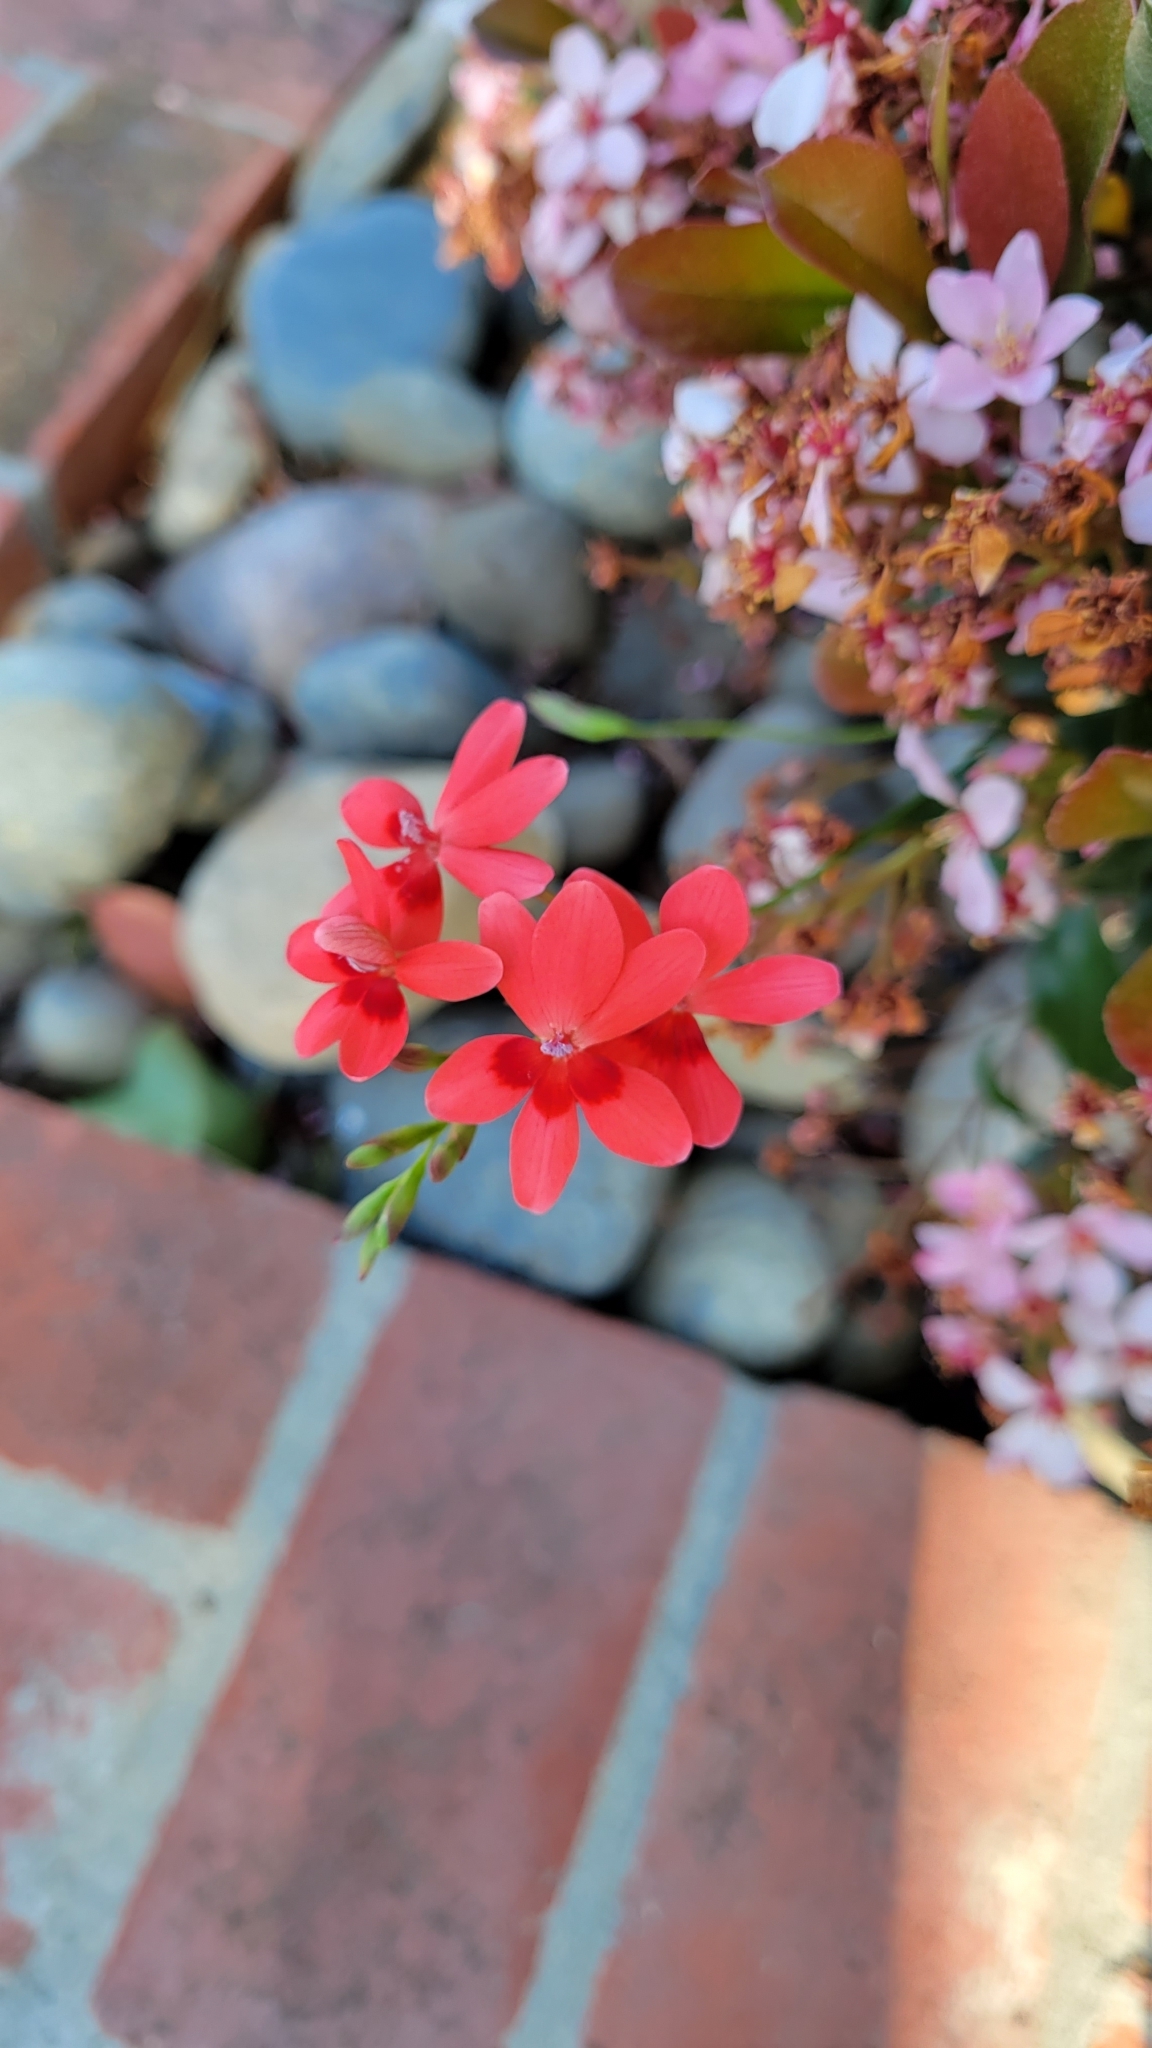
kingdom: Plantae
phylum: Tracheophyta
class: Liliopsida
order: Asparagales
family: Iridaceae
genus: Freesia
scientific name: Freesia laxa
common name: False freesia
